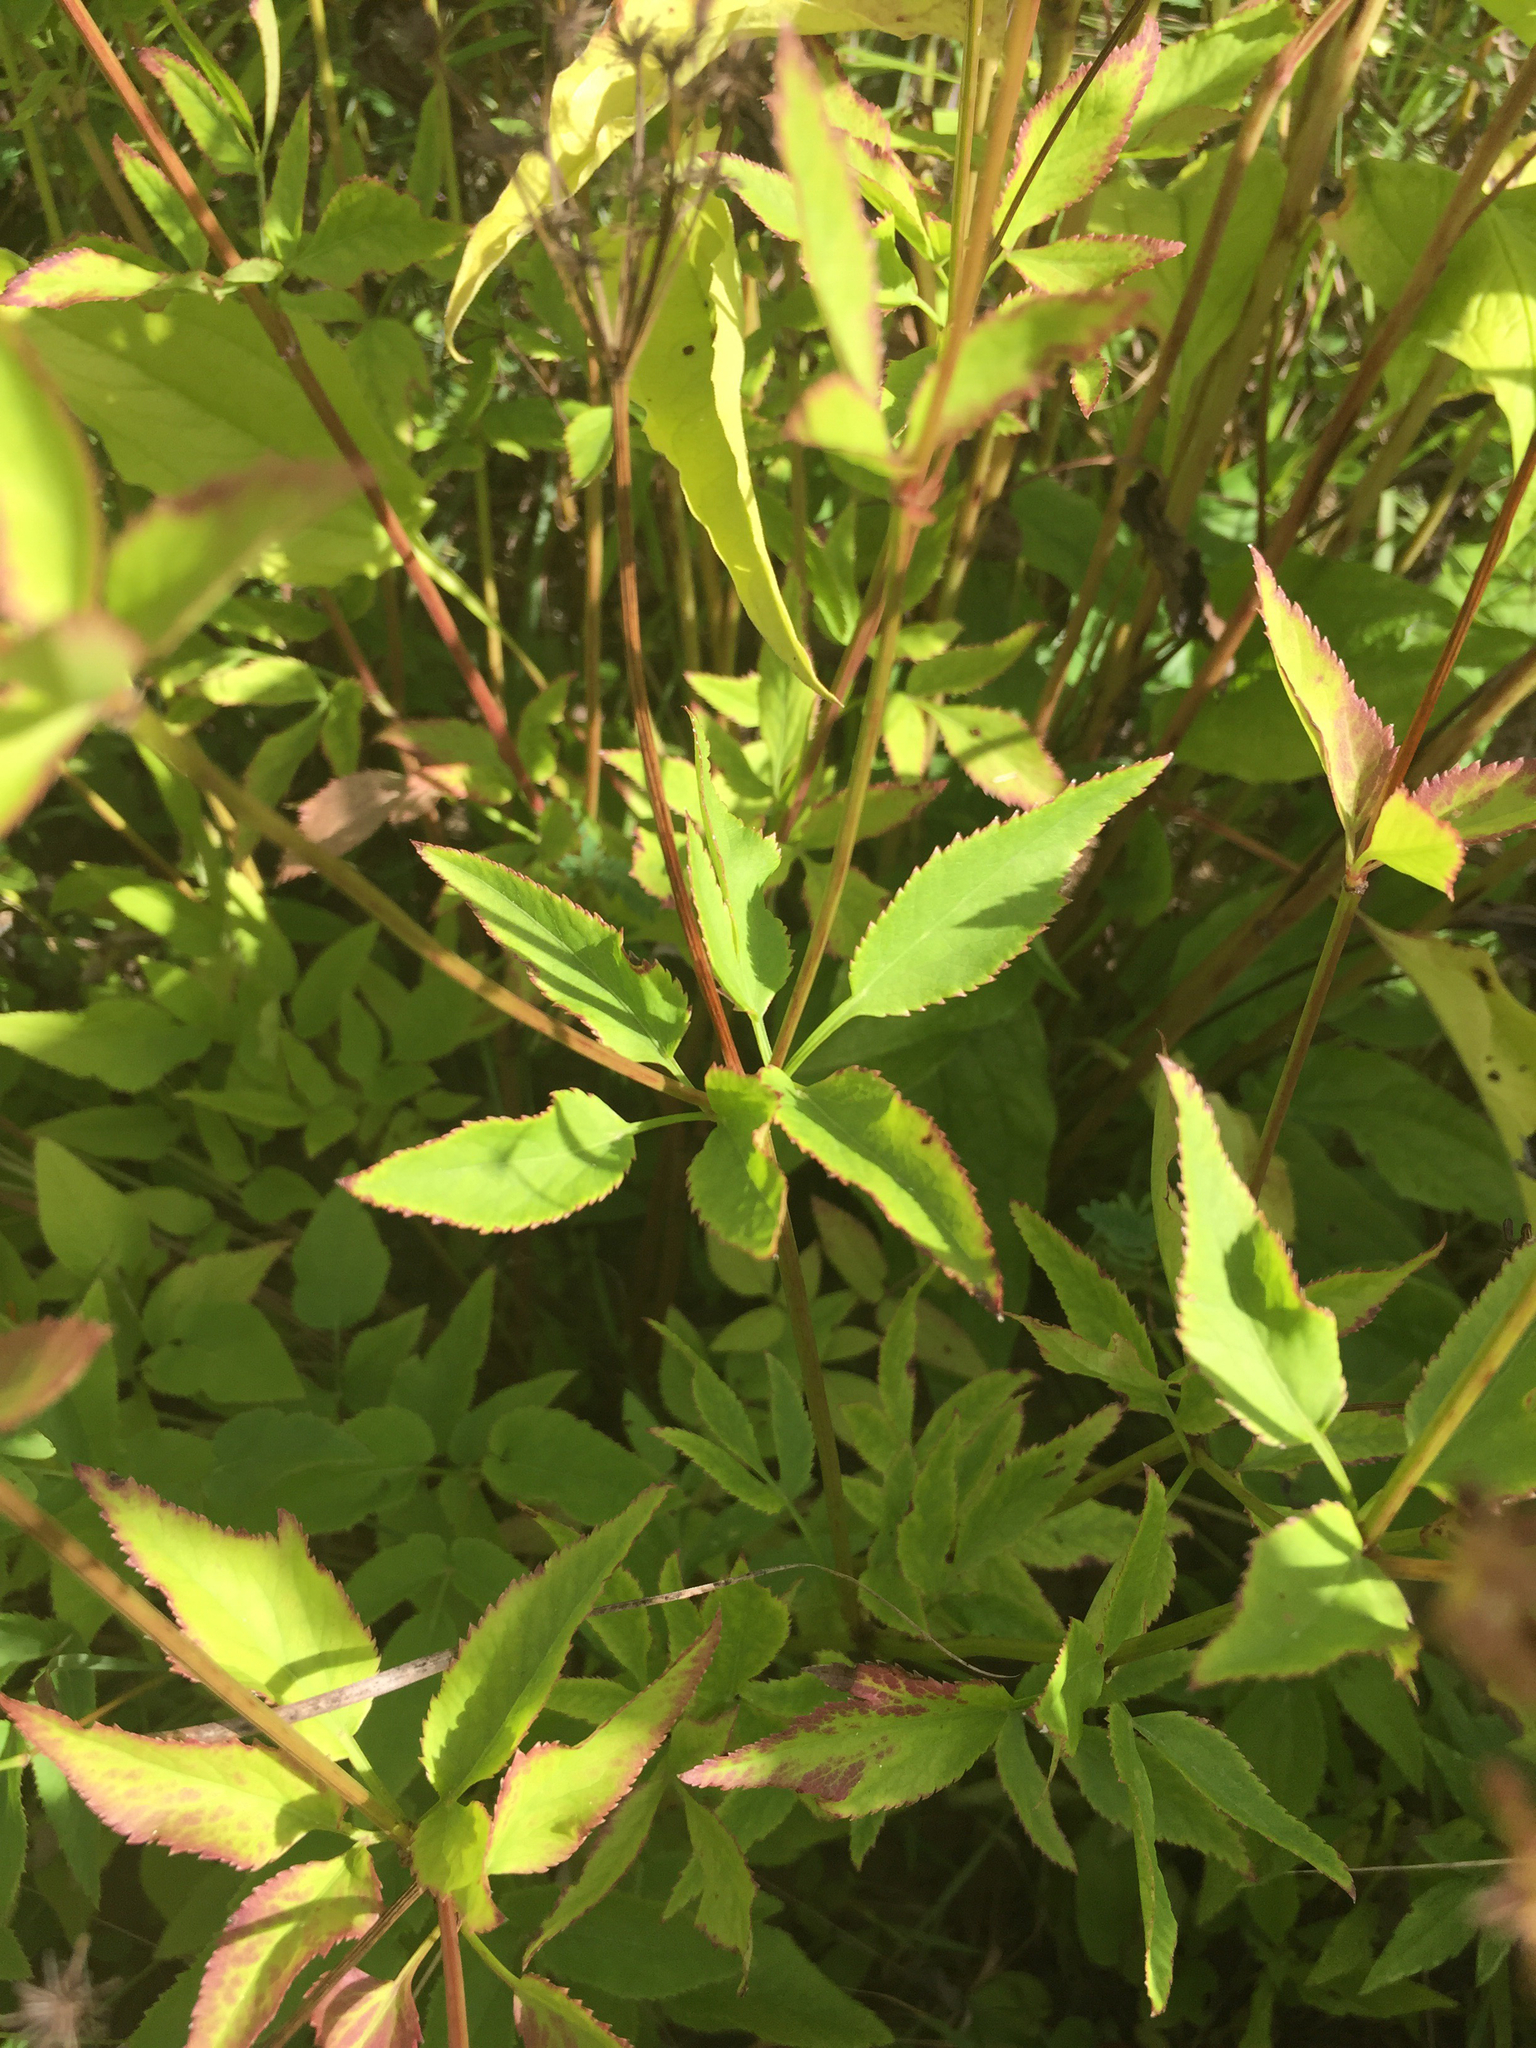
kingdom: Plantae
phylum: Tracheophyta
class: Magnoliopsida
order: Apiales
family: Apiaceae
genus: Zizia
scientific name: Zizia aurea
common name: Golden alexanders
